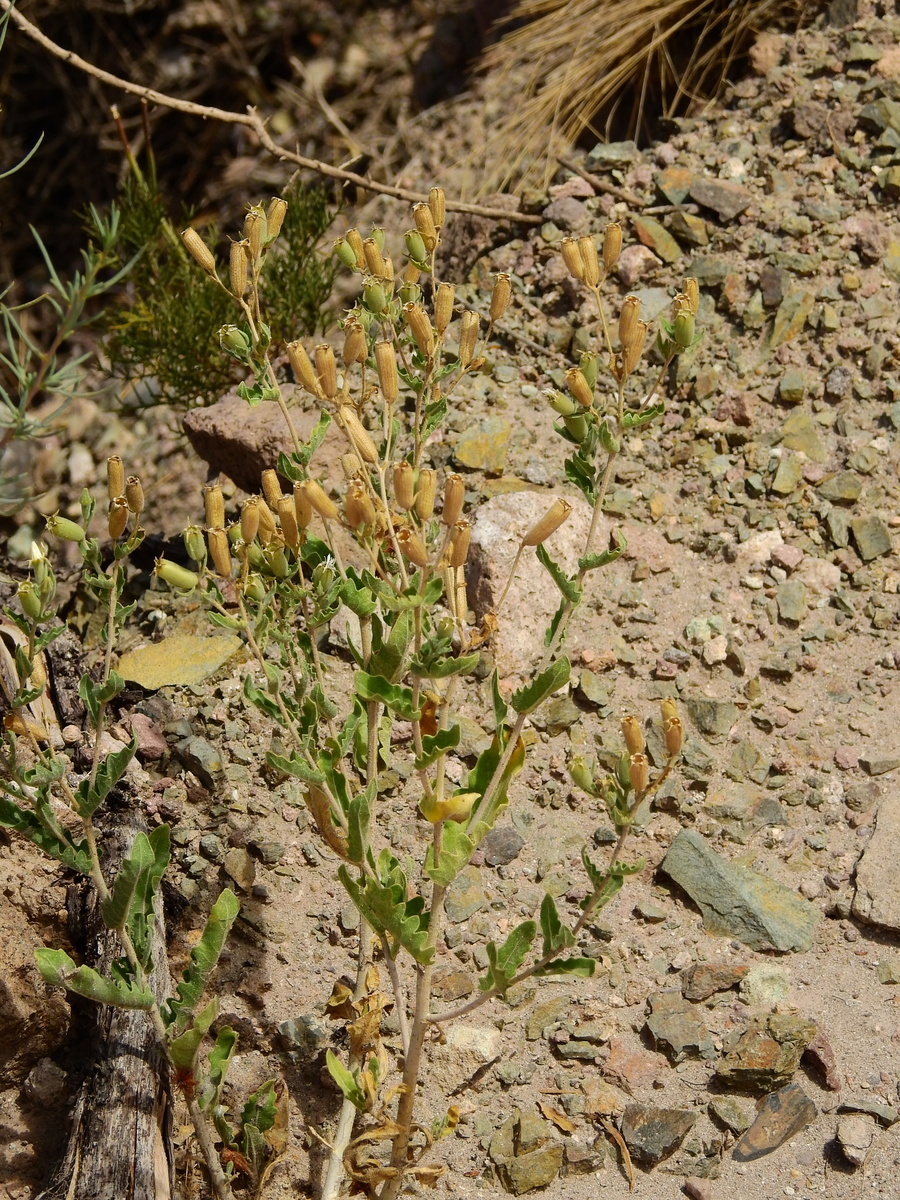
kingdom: Plantae
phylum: Tracheophyta
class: Magnoliopsida
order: Cornales
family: Loasaceae
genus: Mentzelia
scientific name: Mentzelia albescens
